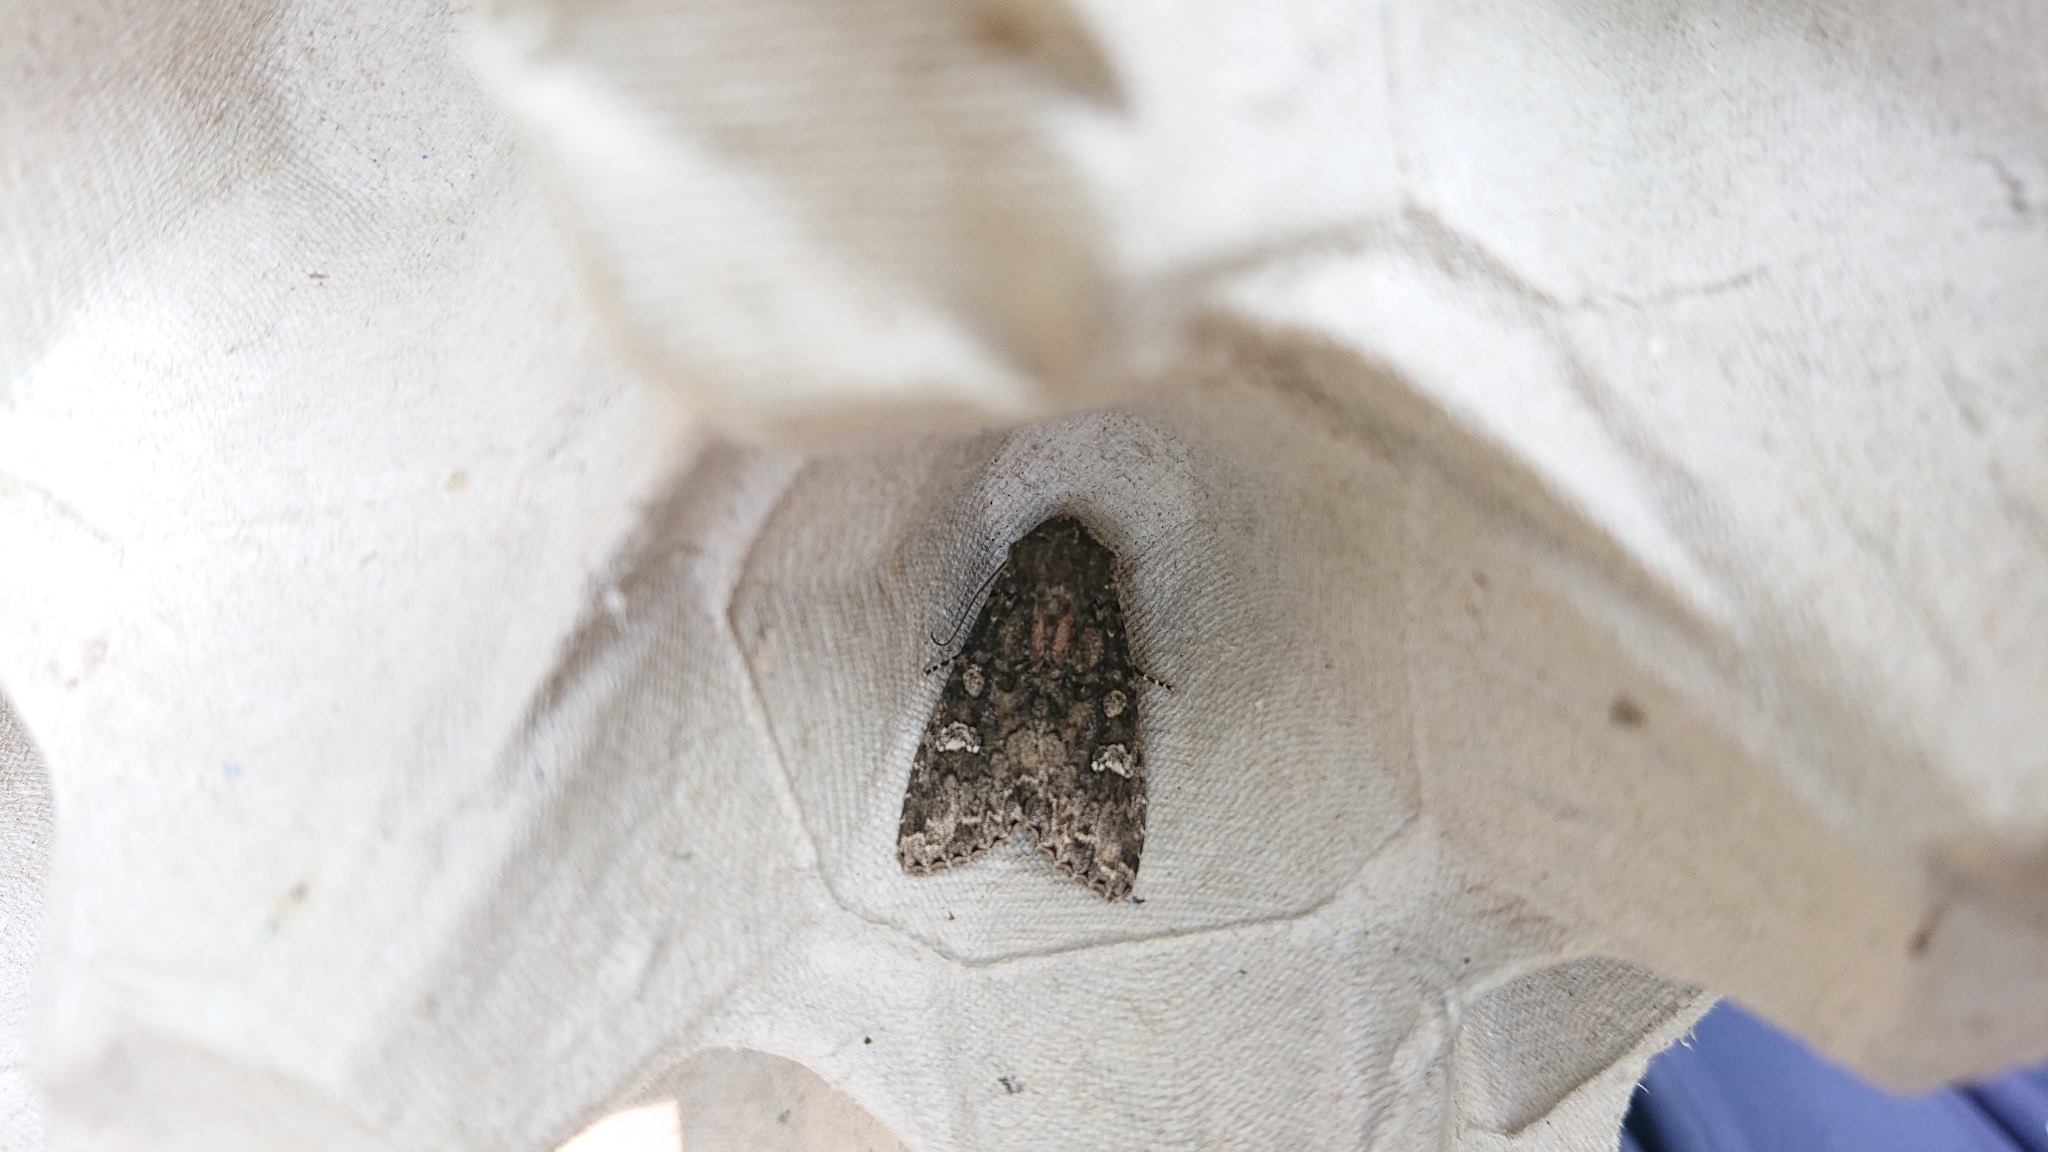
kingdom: Animalia
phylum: Arthropoda
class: Insecta
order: Lepidoptera
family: Noctuidae
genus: Mamestra
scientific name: Mamestra brassicae
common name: Cabbage moth
